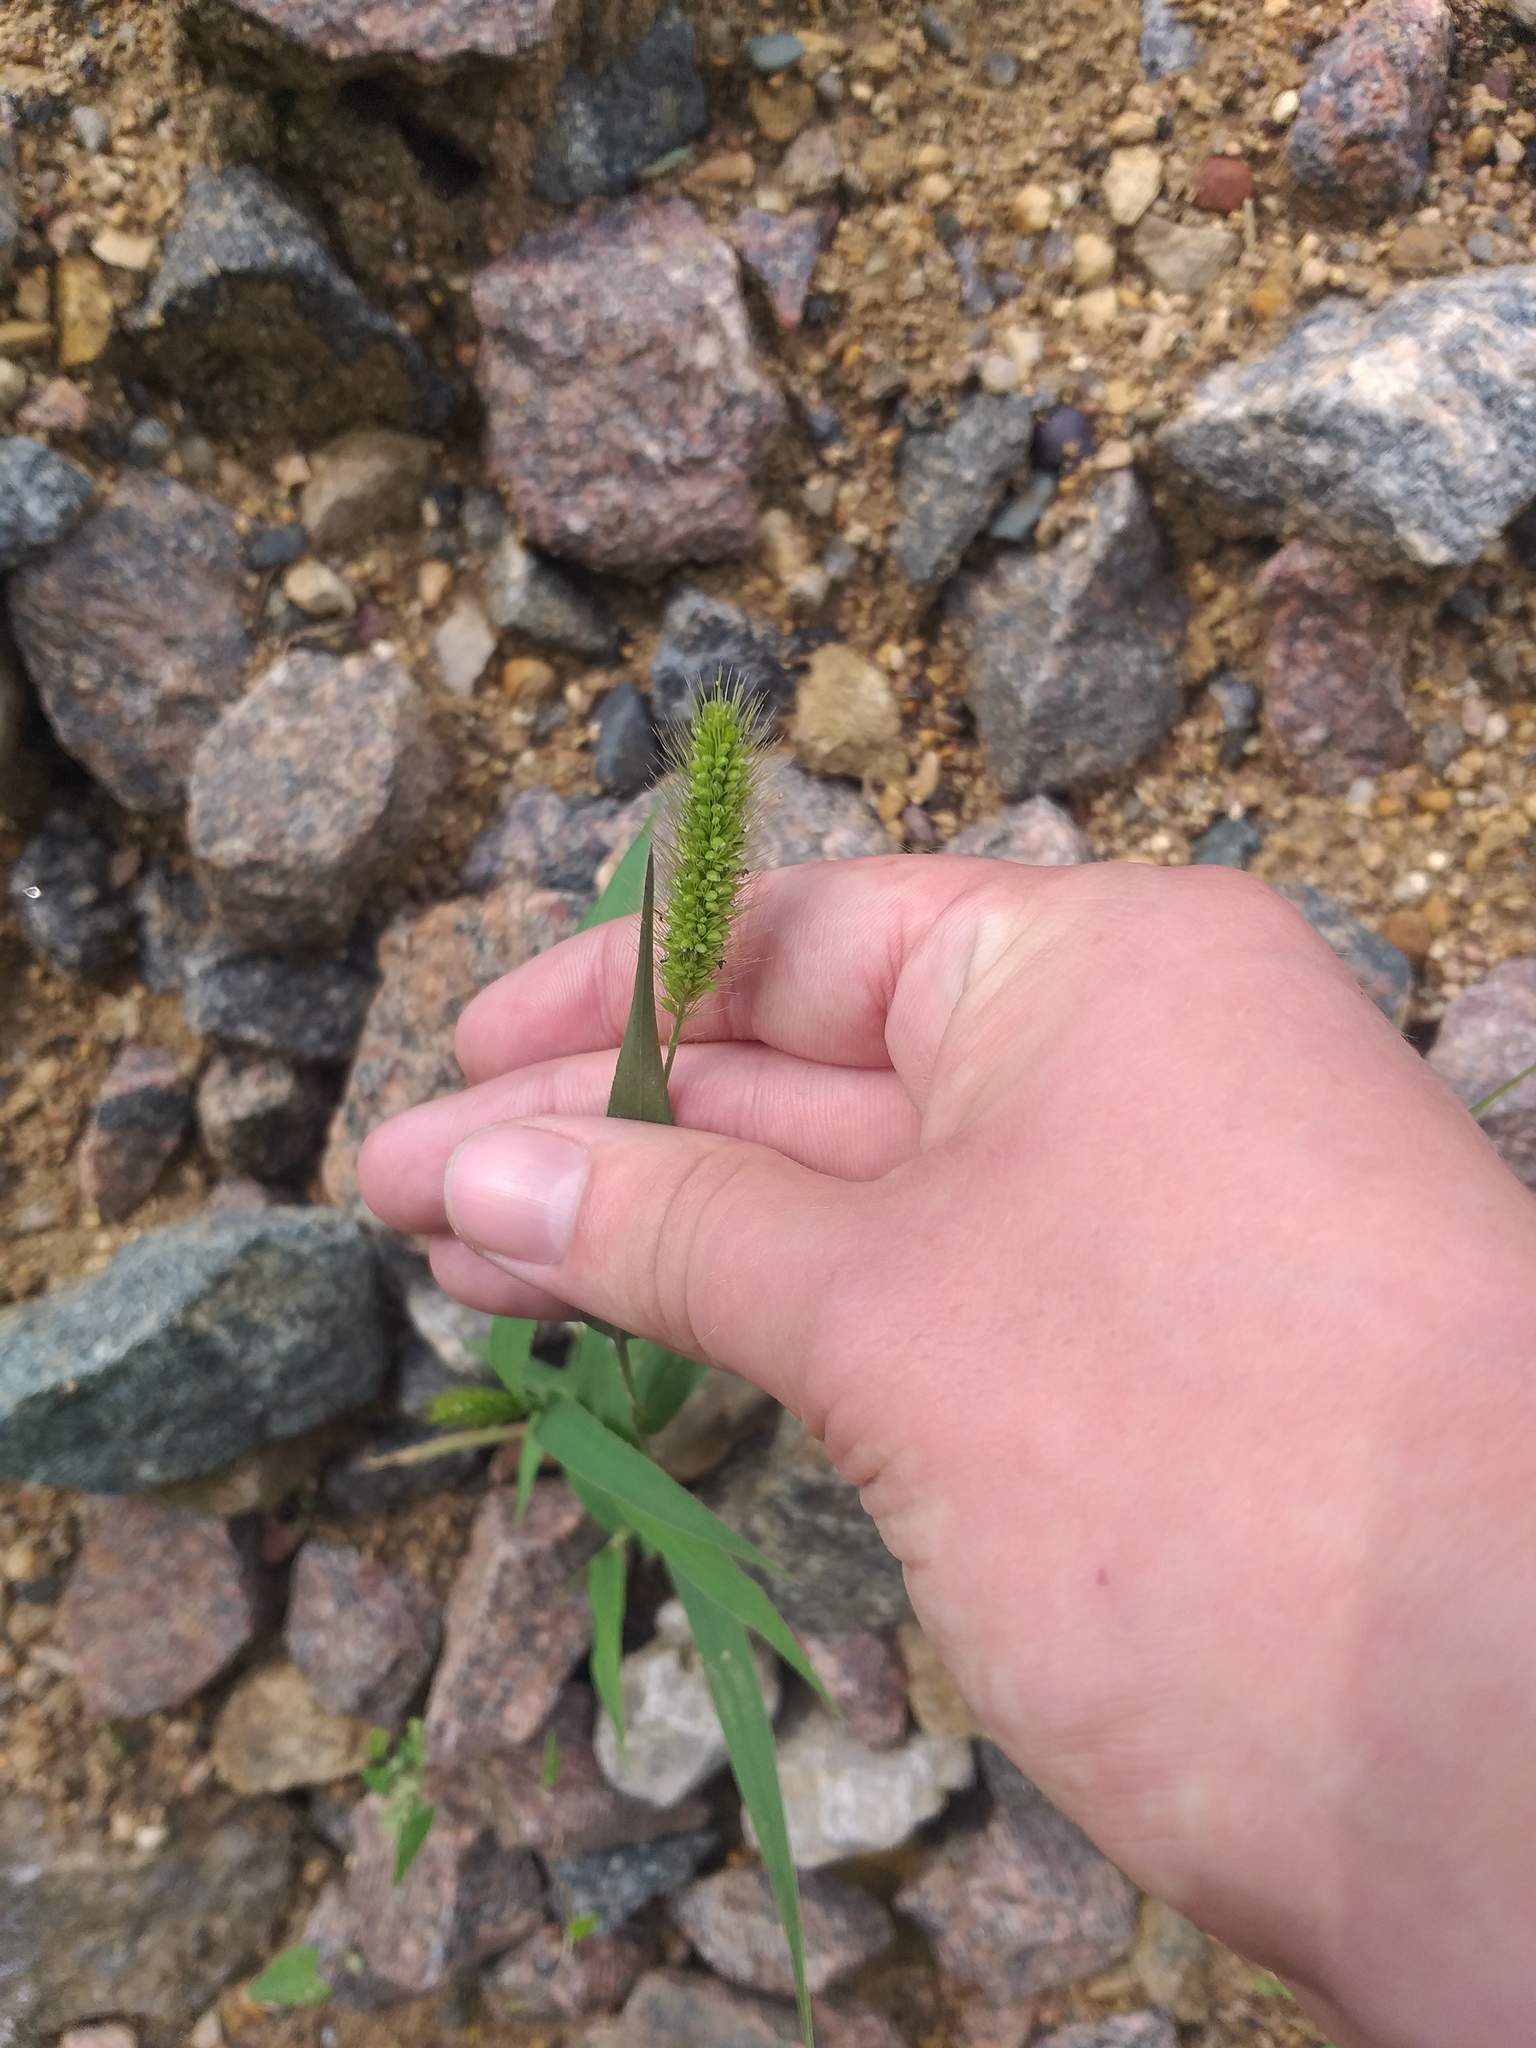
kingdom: Plantae
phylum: Tracheophyta
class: Liliopsida
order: Poales
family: Poaceae
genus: Setaria
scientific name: Setaria viridis
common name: Green bristlegrass
